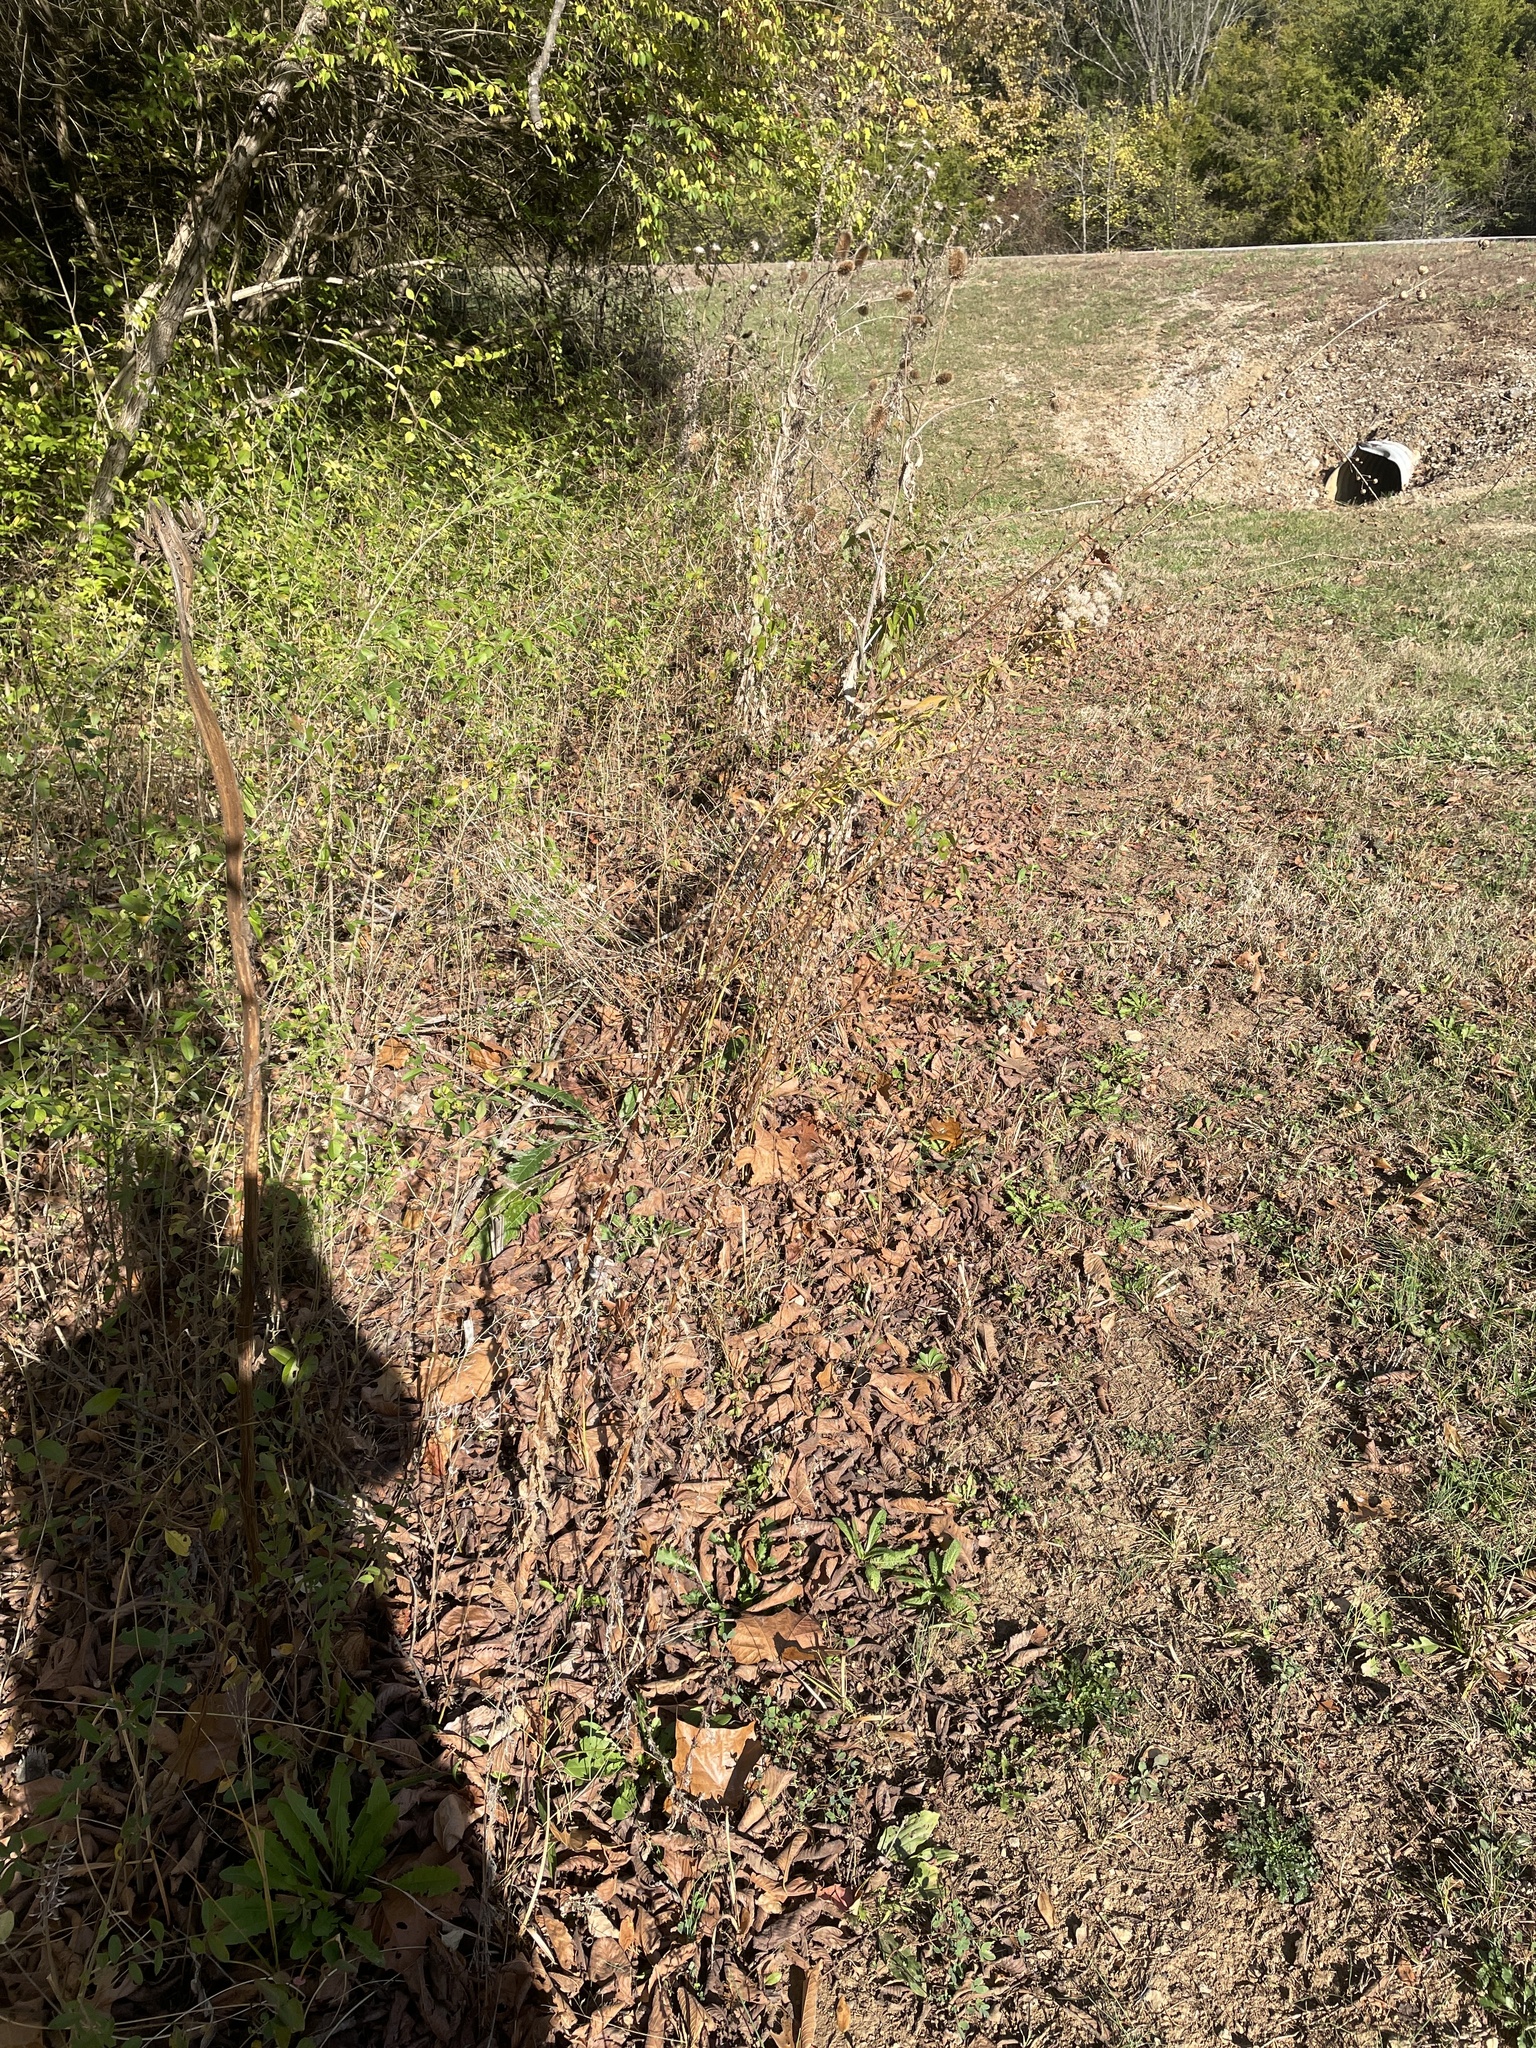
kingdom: Plantae
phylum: Tracheophyta
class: Magnoliopsida
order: Lamiales
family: Scrophulariaceae
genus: Verbascum
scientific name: Verbascum blattaria
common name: Moth mullein
